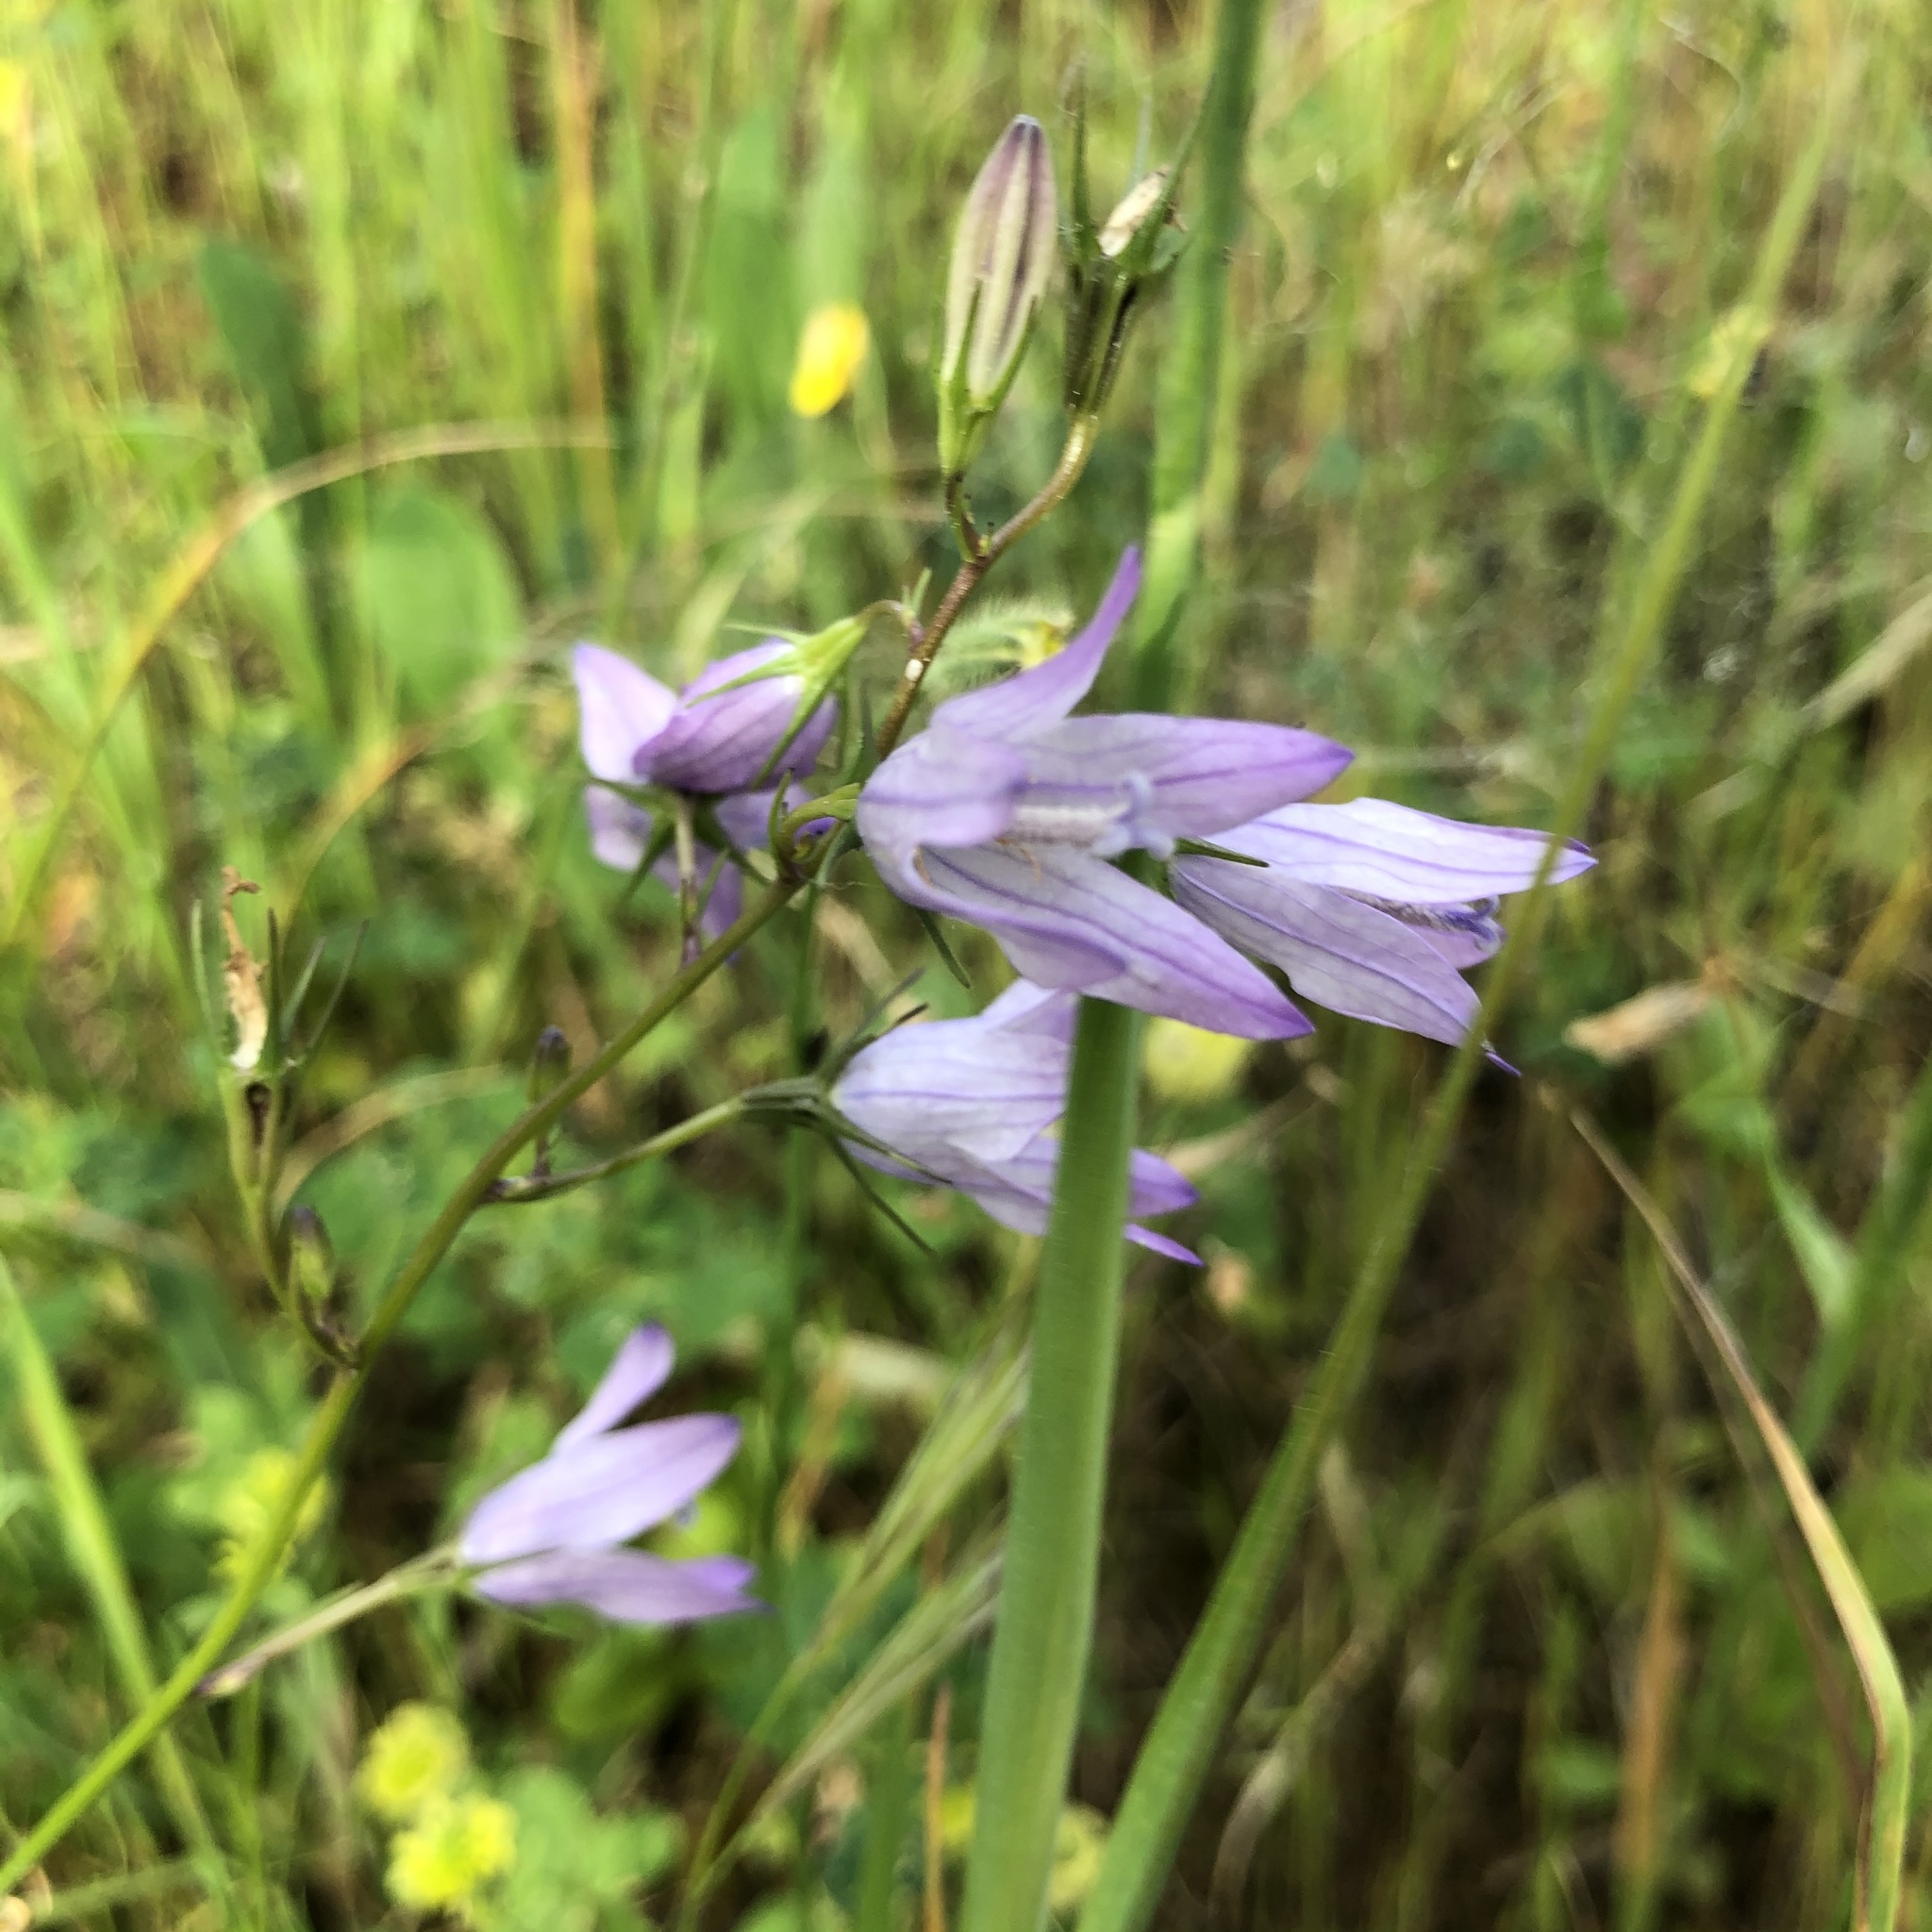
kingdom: Plantae
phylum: Tracheophyta
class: Magnoliopsida
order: Asterales
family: Campanulaceae
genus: Campanula
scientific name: Campanula rapunculus
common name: Rampion bellflower
